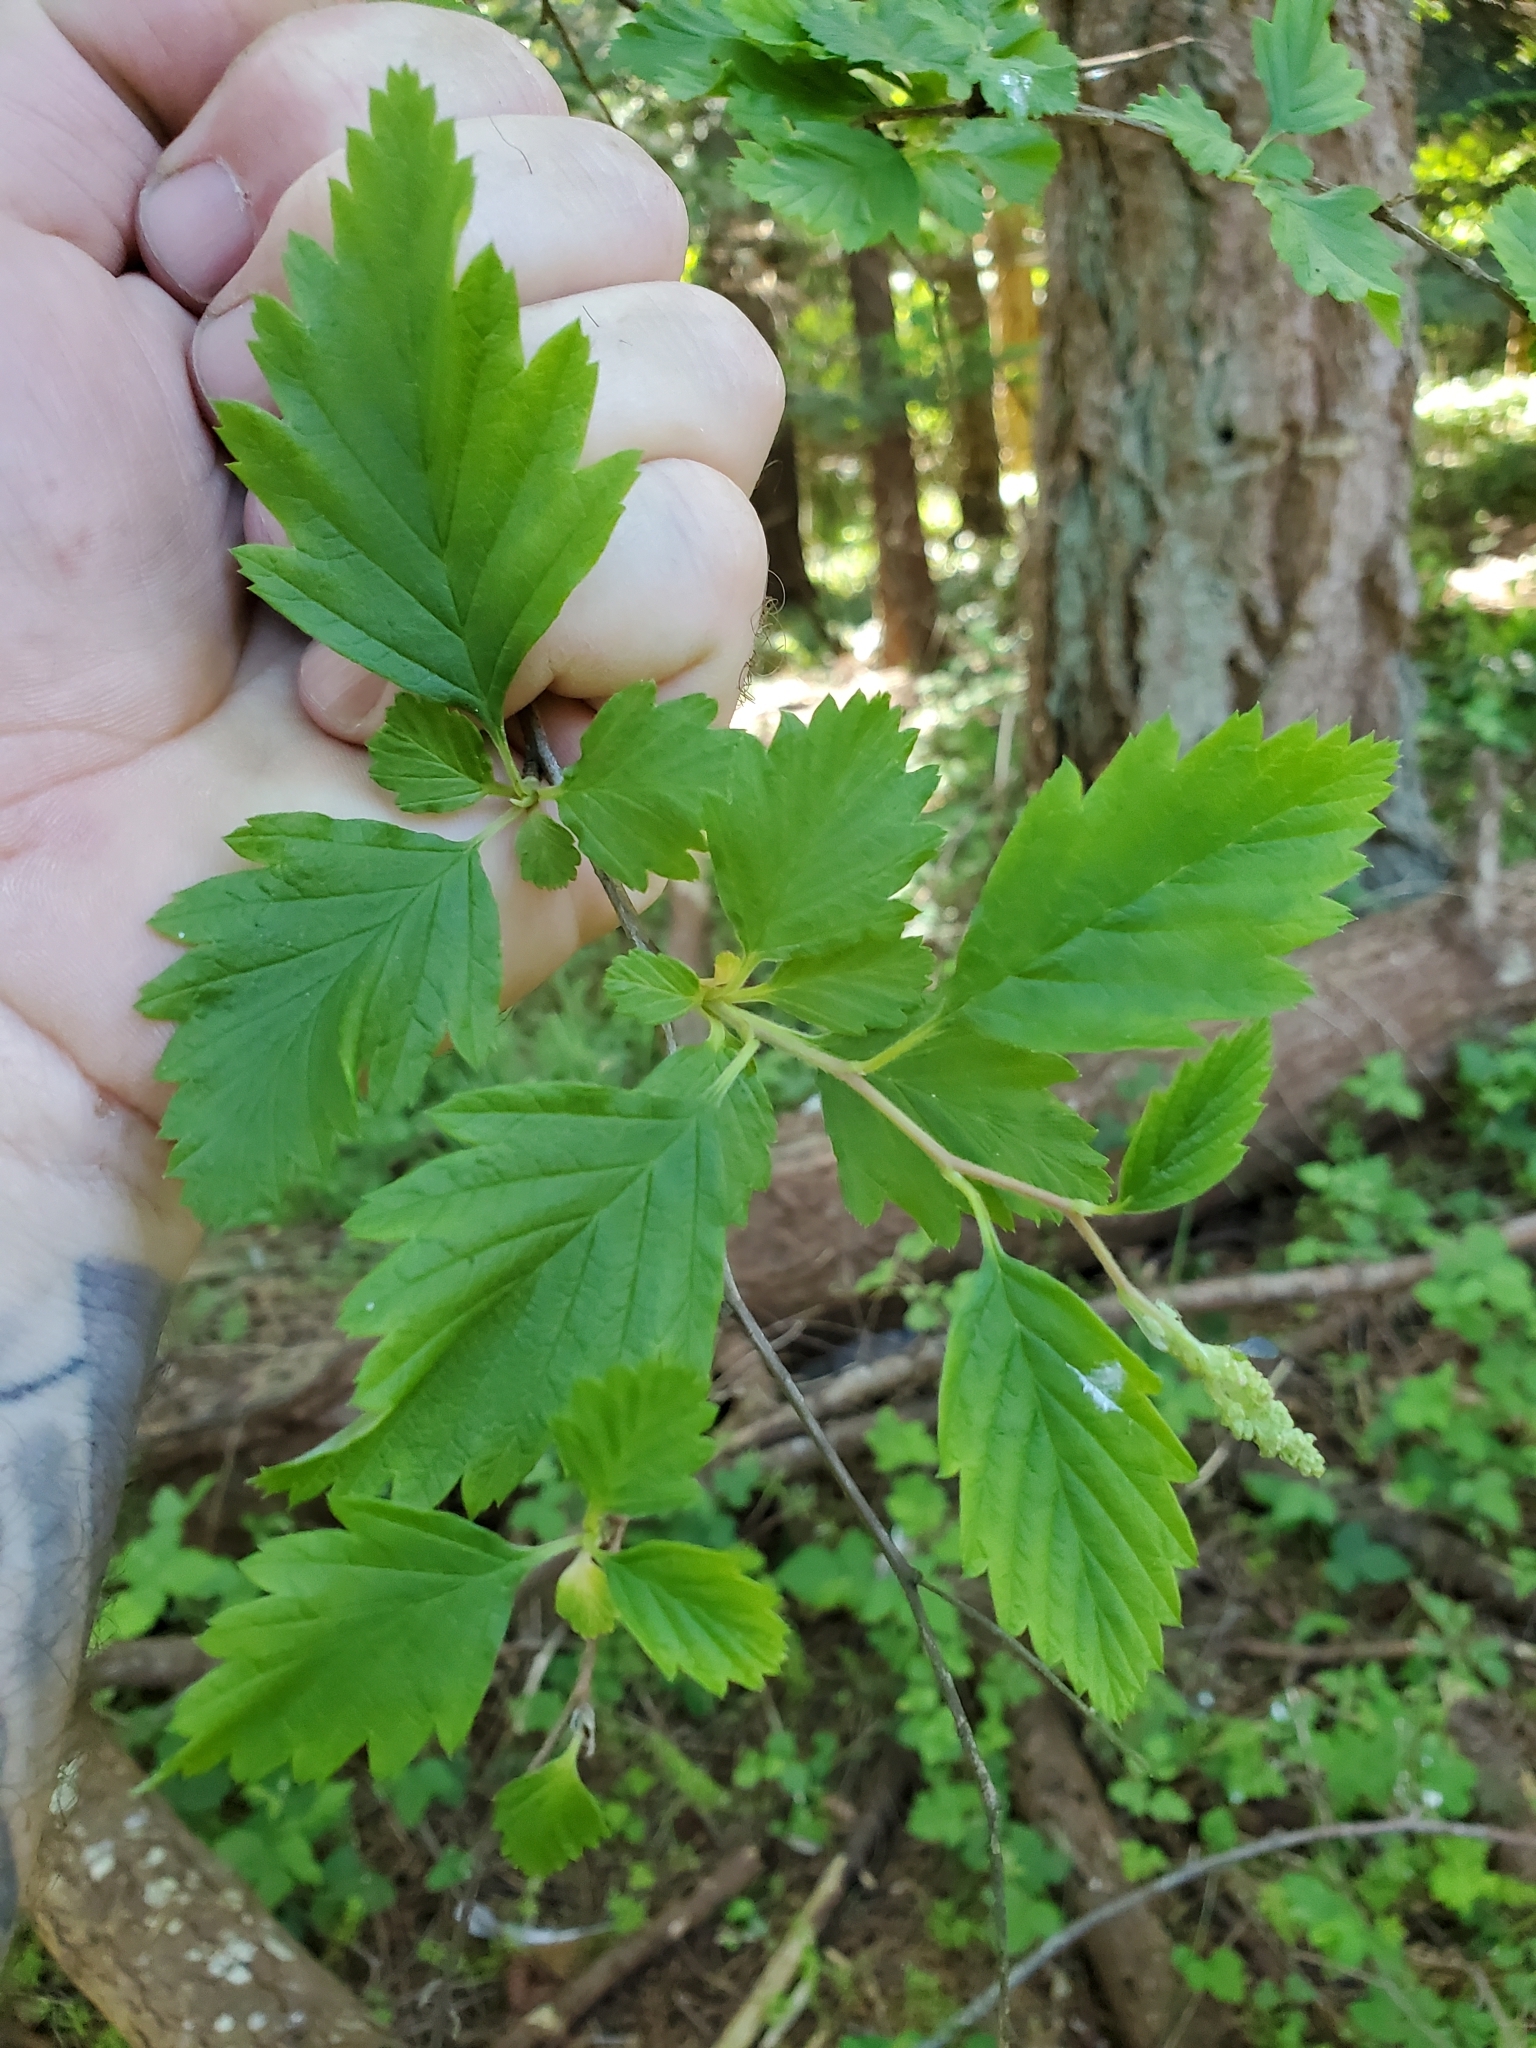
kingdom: Plantae
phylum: Tracheophyta
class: Magnoliopsida
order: Rosales
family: Rosaceae
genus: Holodiscus
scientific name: Holodiscus discolor
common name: Oceanspray
